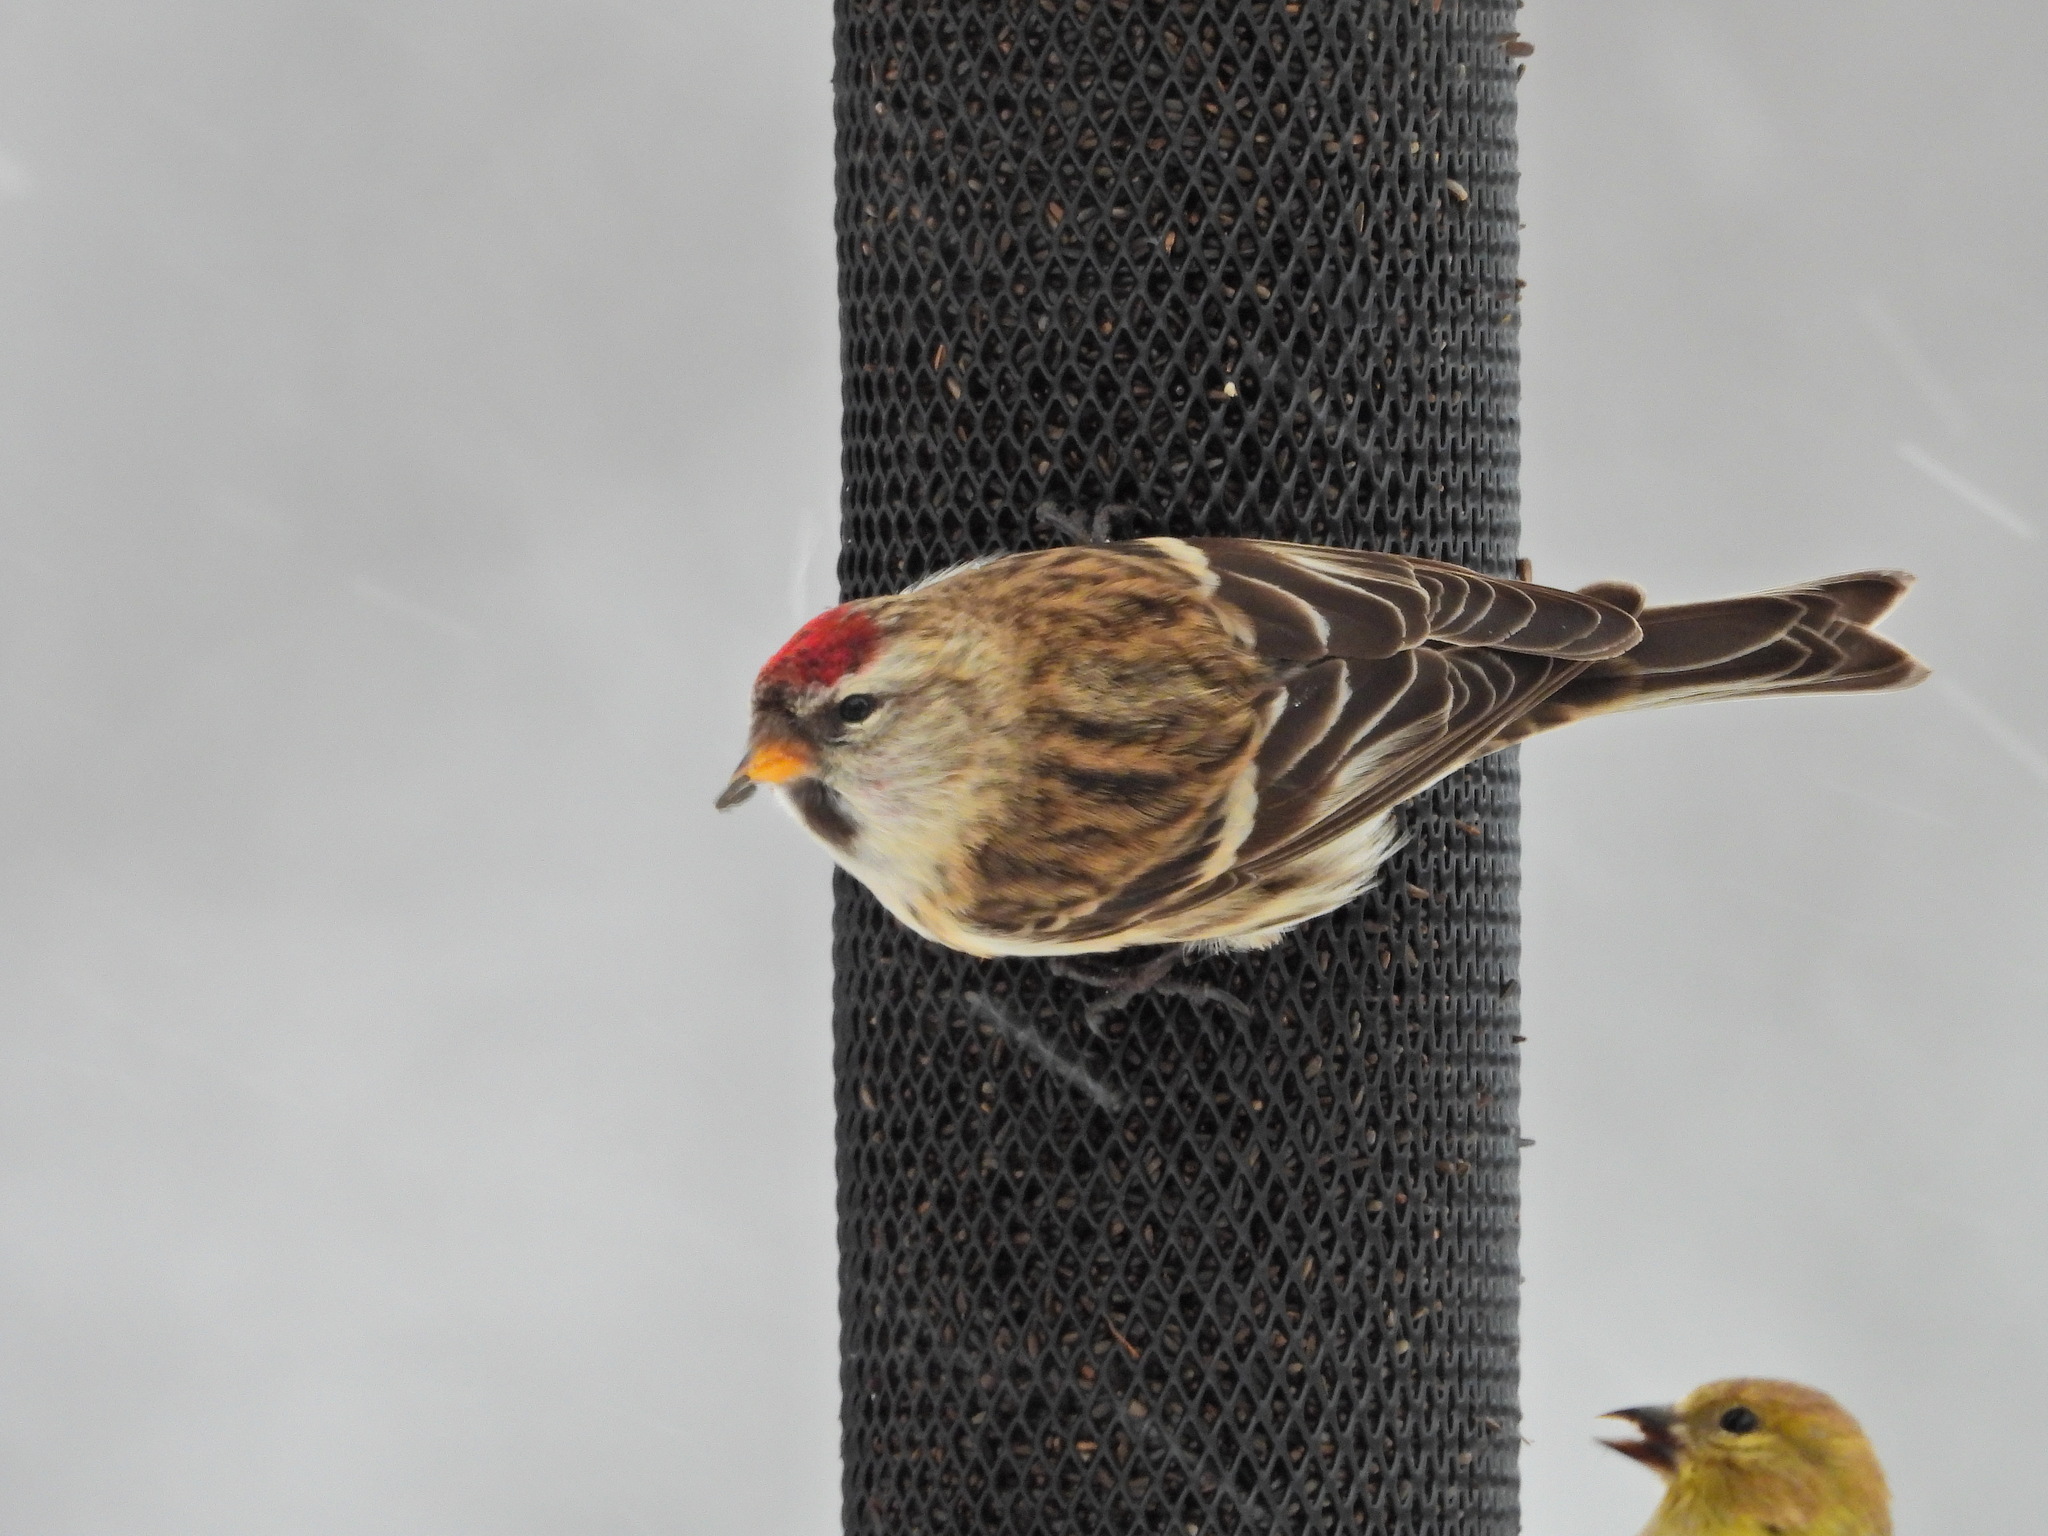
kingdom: Animalia
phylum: Chordata
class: Aves
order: Passeriformes
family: Fringillidae
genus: Acanthis
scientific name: Acanthis flammea
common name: Common redpoll
